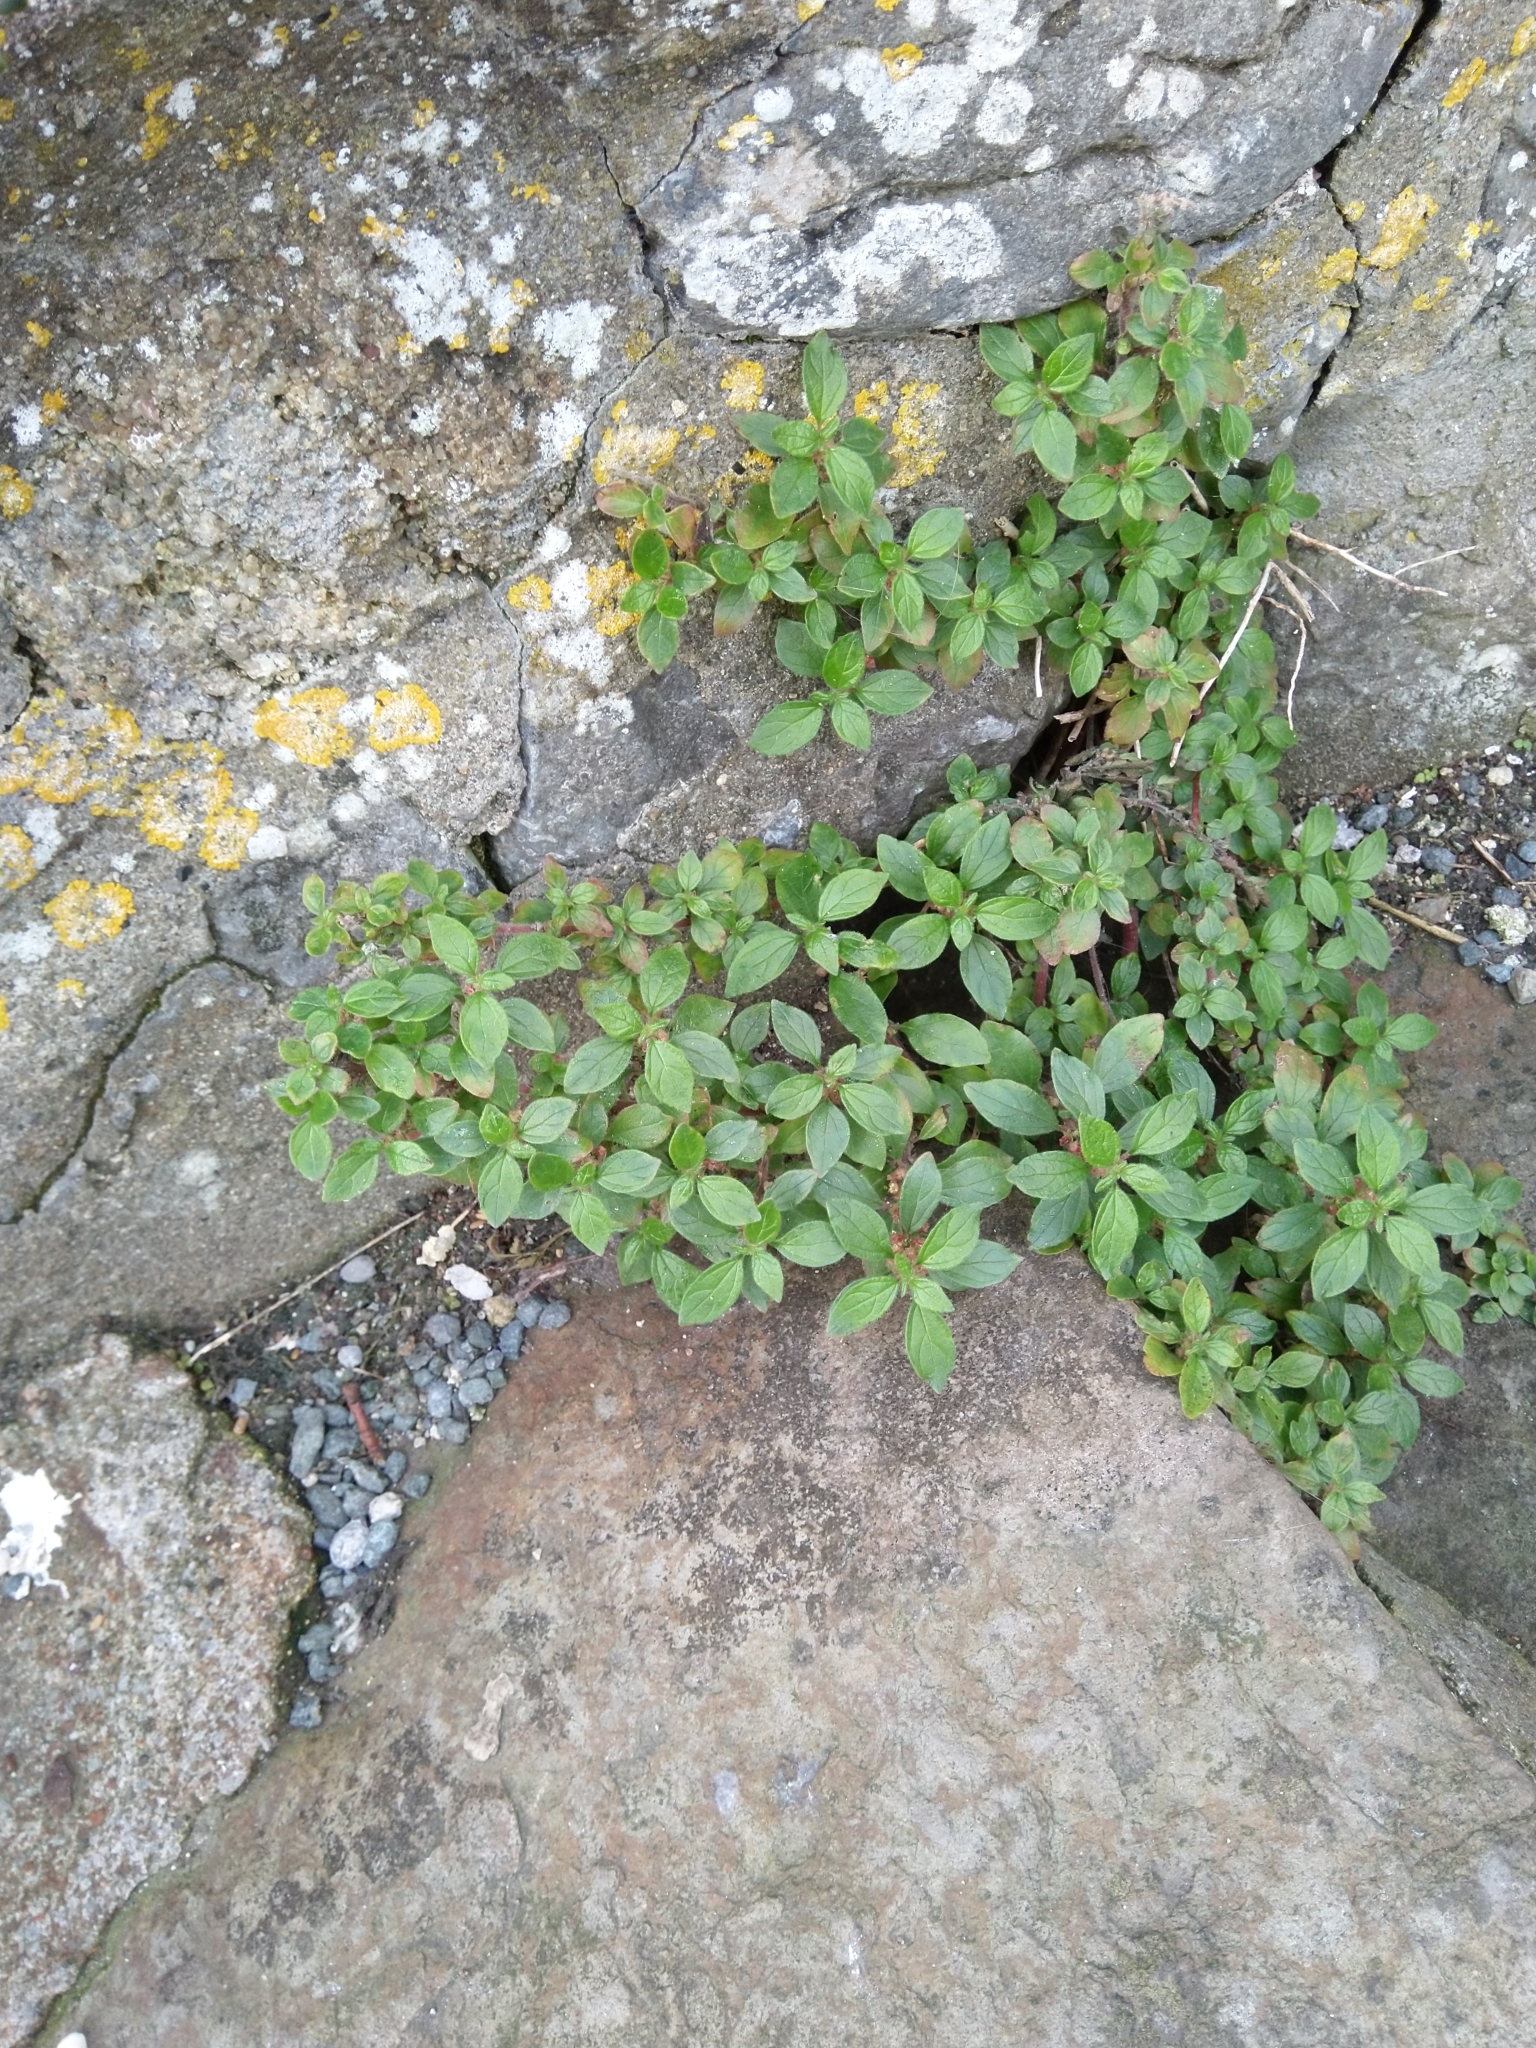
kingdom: Plantae
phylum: Tracheophyta
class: Magnoliopsida
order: Rosales
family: Urticaceae
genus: Parietaria
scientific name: Parietaria judaica
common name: Pellitory-of-the-wall
